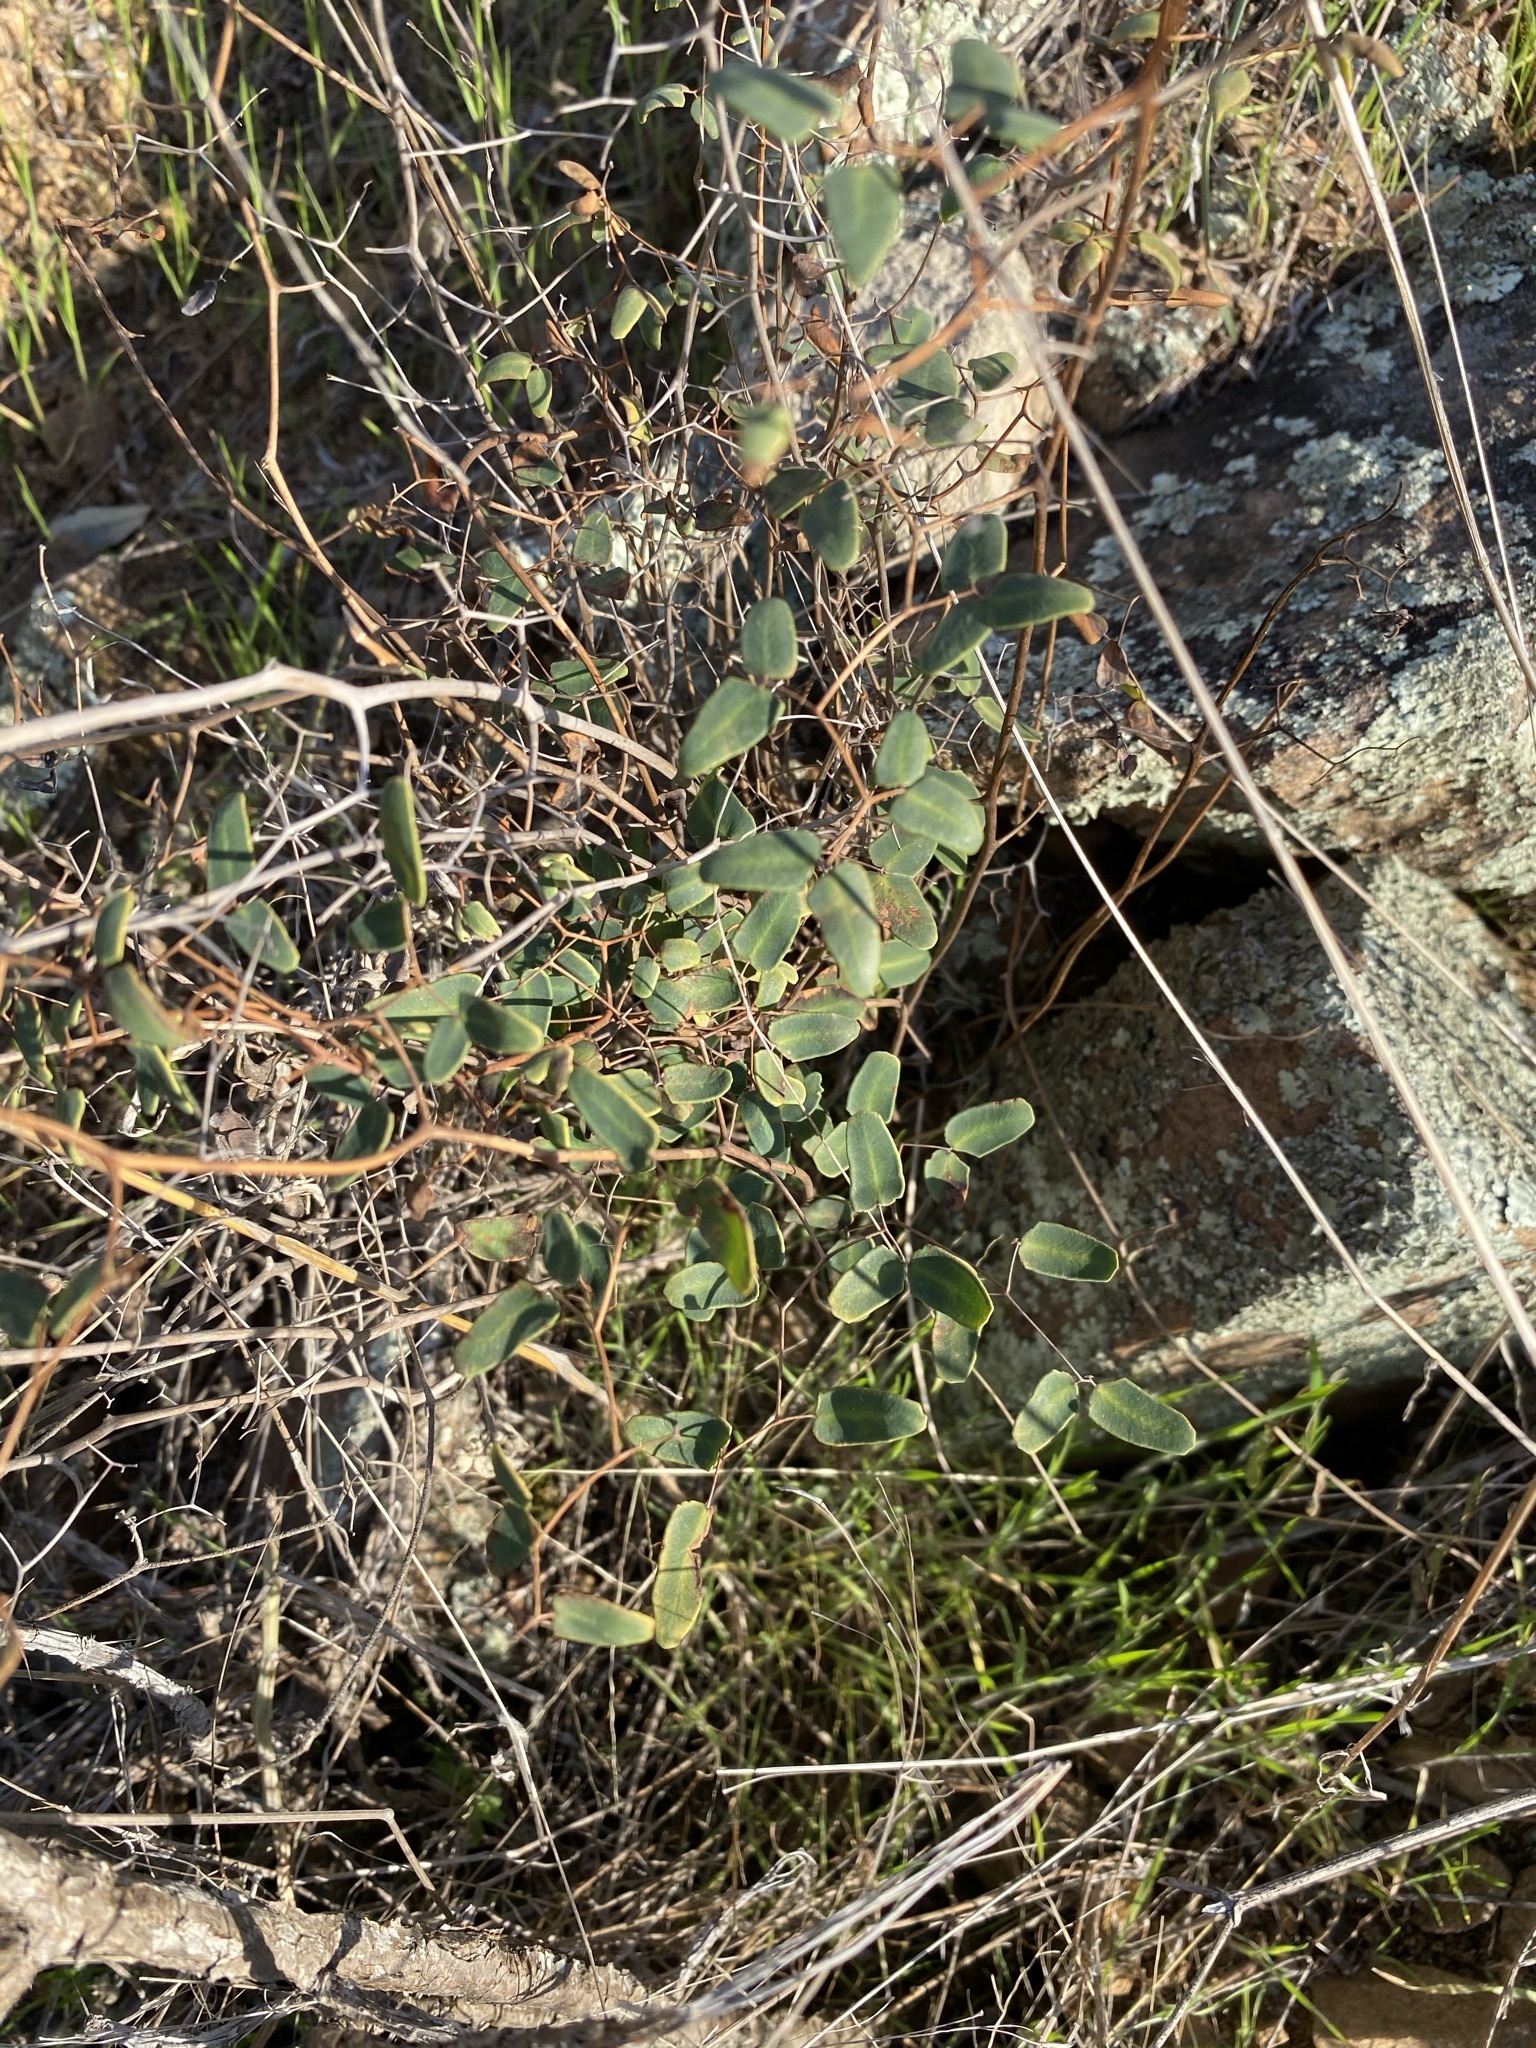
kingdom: Plantae
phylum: Tracheophyta
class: Polypodiopsida
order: Polypodiales
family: Pteridaceae
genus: Pellaea
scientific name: Pellaea ovata
